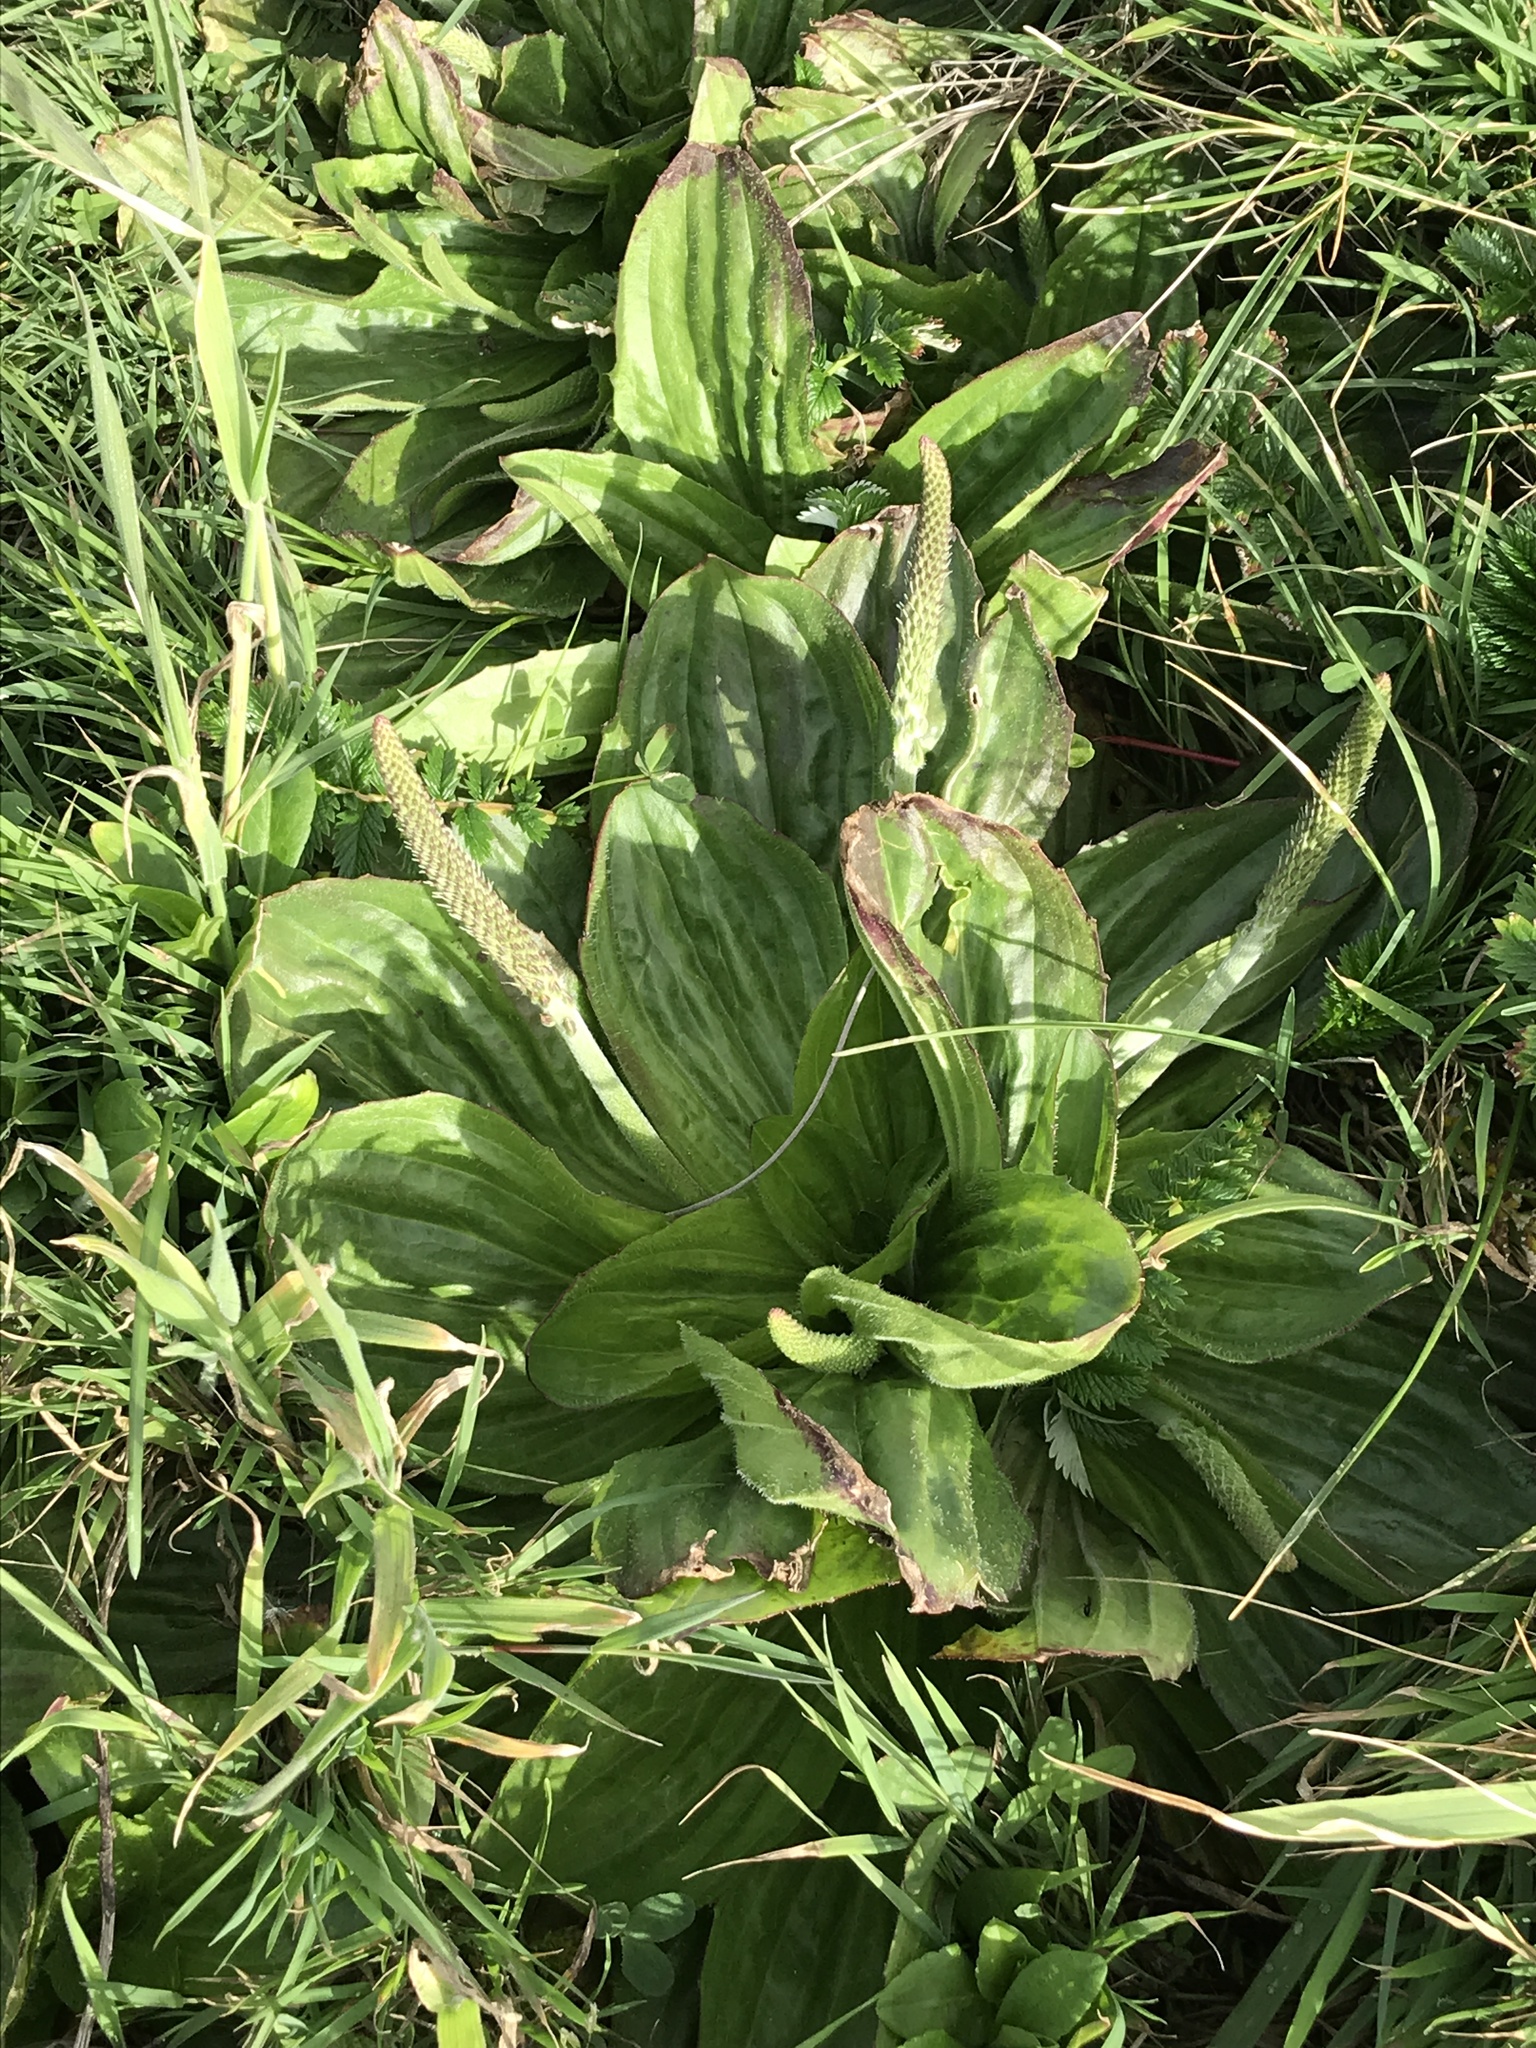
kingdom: Plantae
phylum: Tracheophyta
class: Magnoliopsida
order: Lamiales
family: Plantaginaceae
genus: Plantago
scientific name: Plantago subnuda
